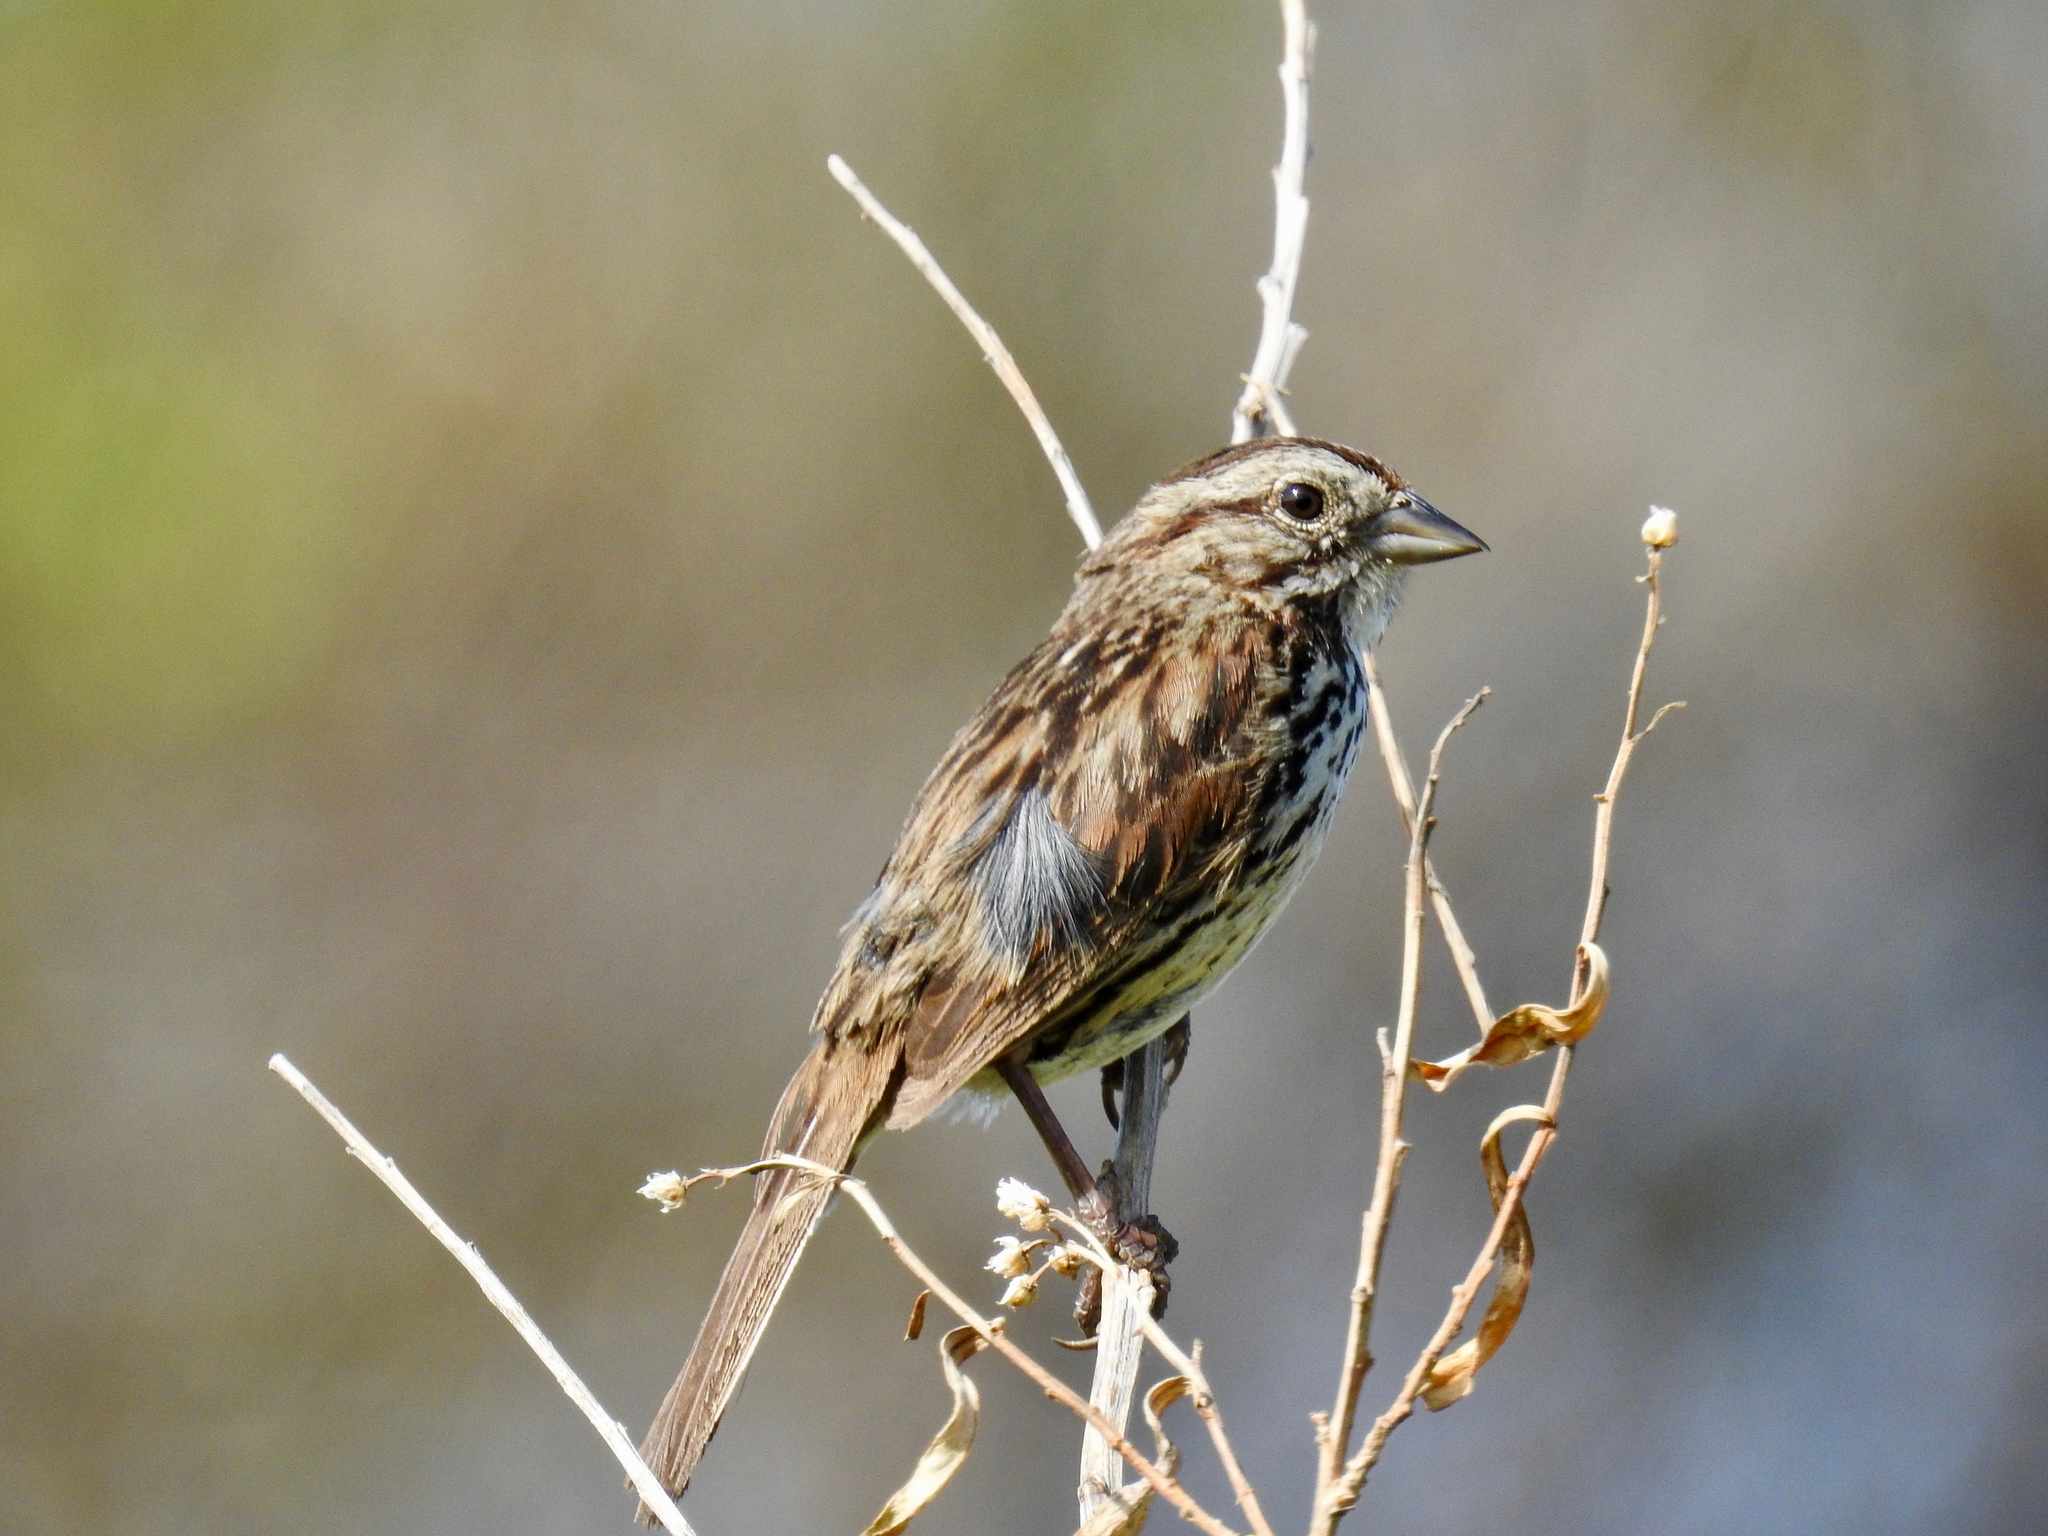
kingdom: Animalia
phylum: Chordata
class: Aves
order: Passeriformes
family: Passerellidae
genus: Melospiza
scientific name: Melospiza melodia
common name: Song sparrow
